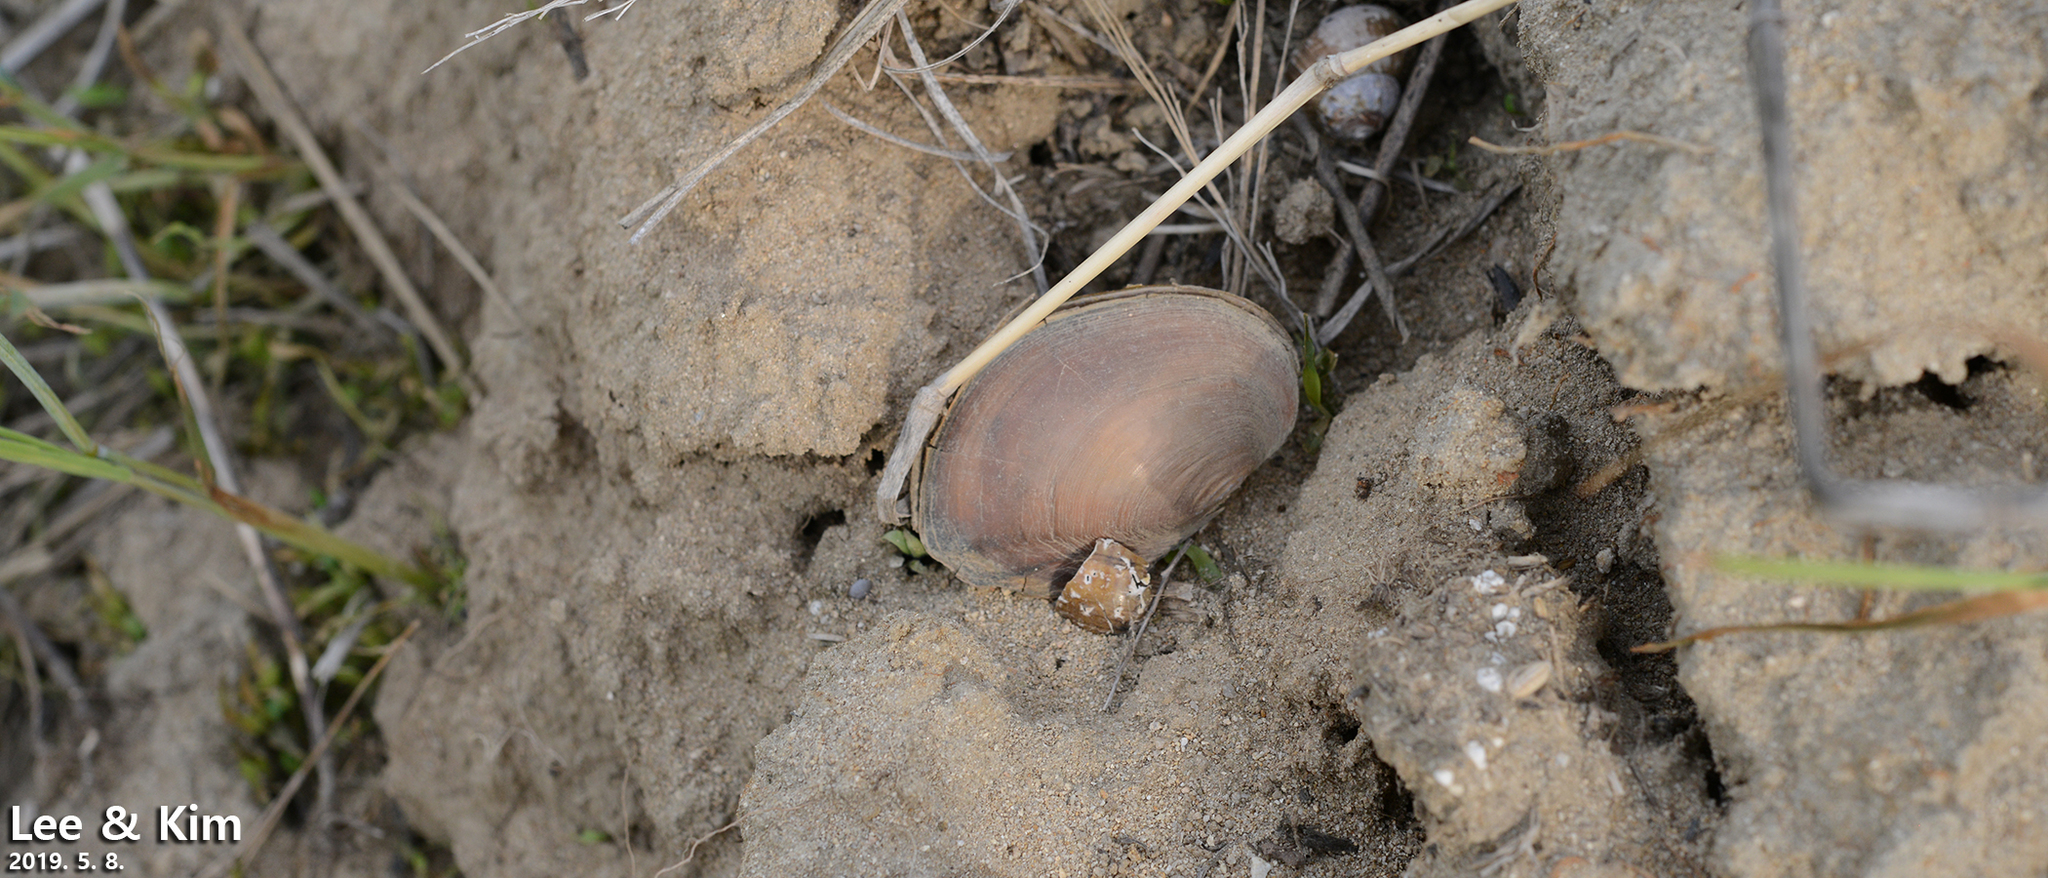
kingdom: Animalia
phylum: Mollusca
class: Bivalvia
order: Unionida
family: Unionidae
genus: Sinanodonta
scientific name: Sinanodonta schrenkii
